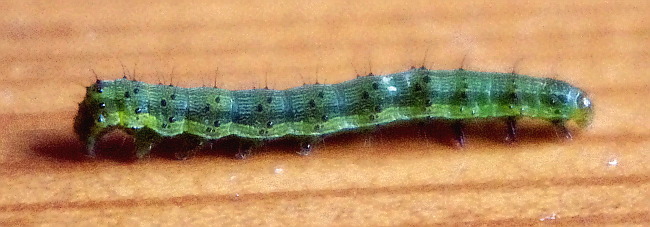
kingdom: Animalia
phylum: Arthropoda
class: Insecta
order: Lepidoptera
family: Noctuidae
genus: Helicoverpa
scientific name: Helicoverpa armigera
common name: Cotton bollworm
